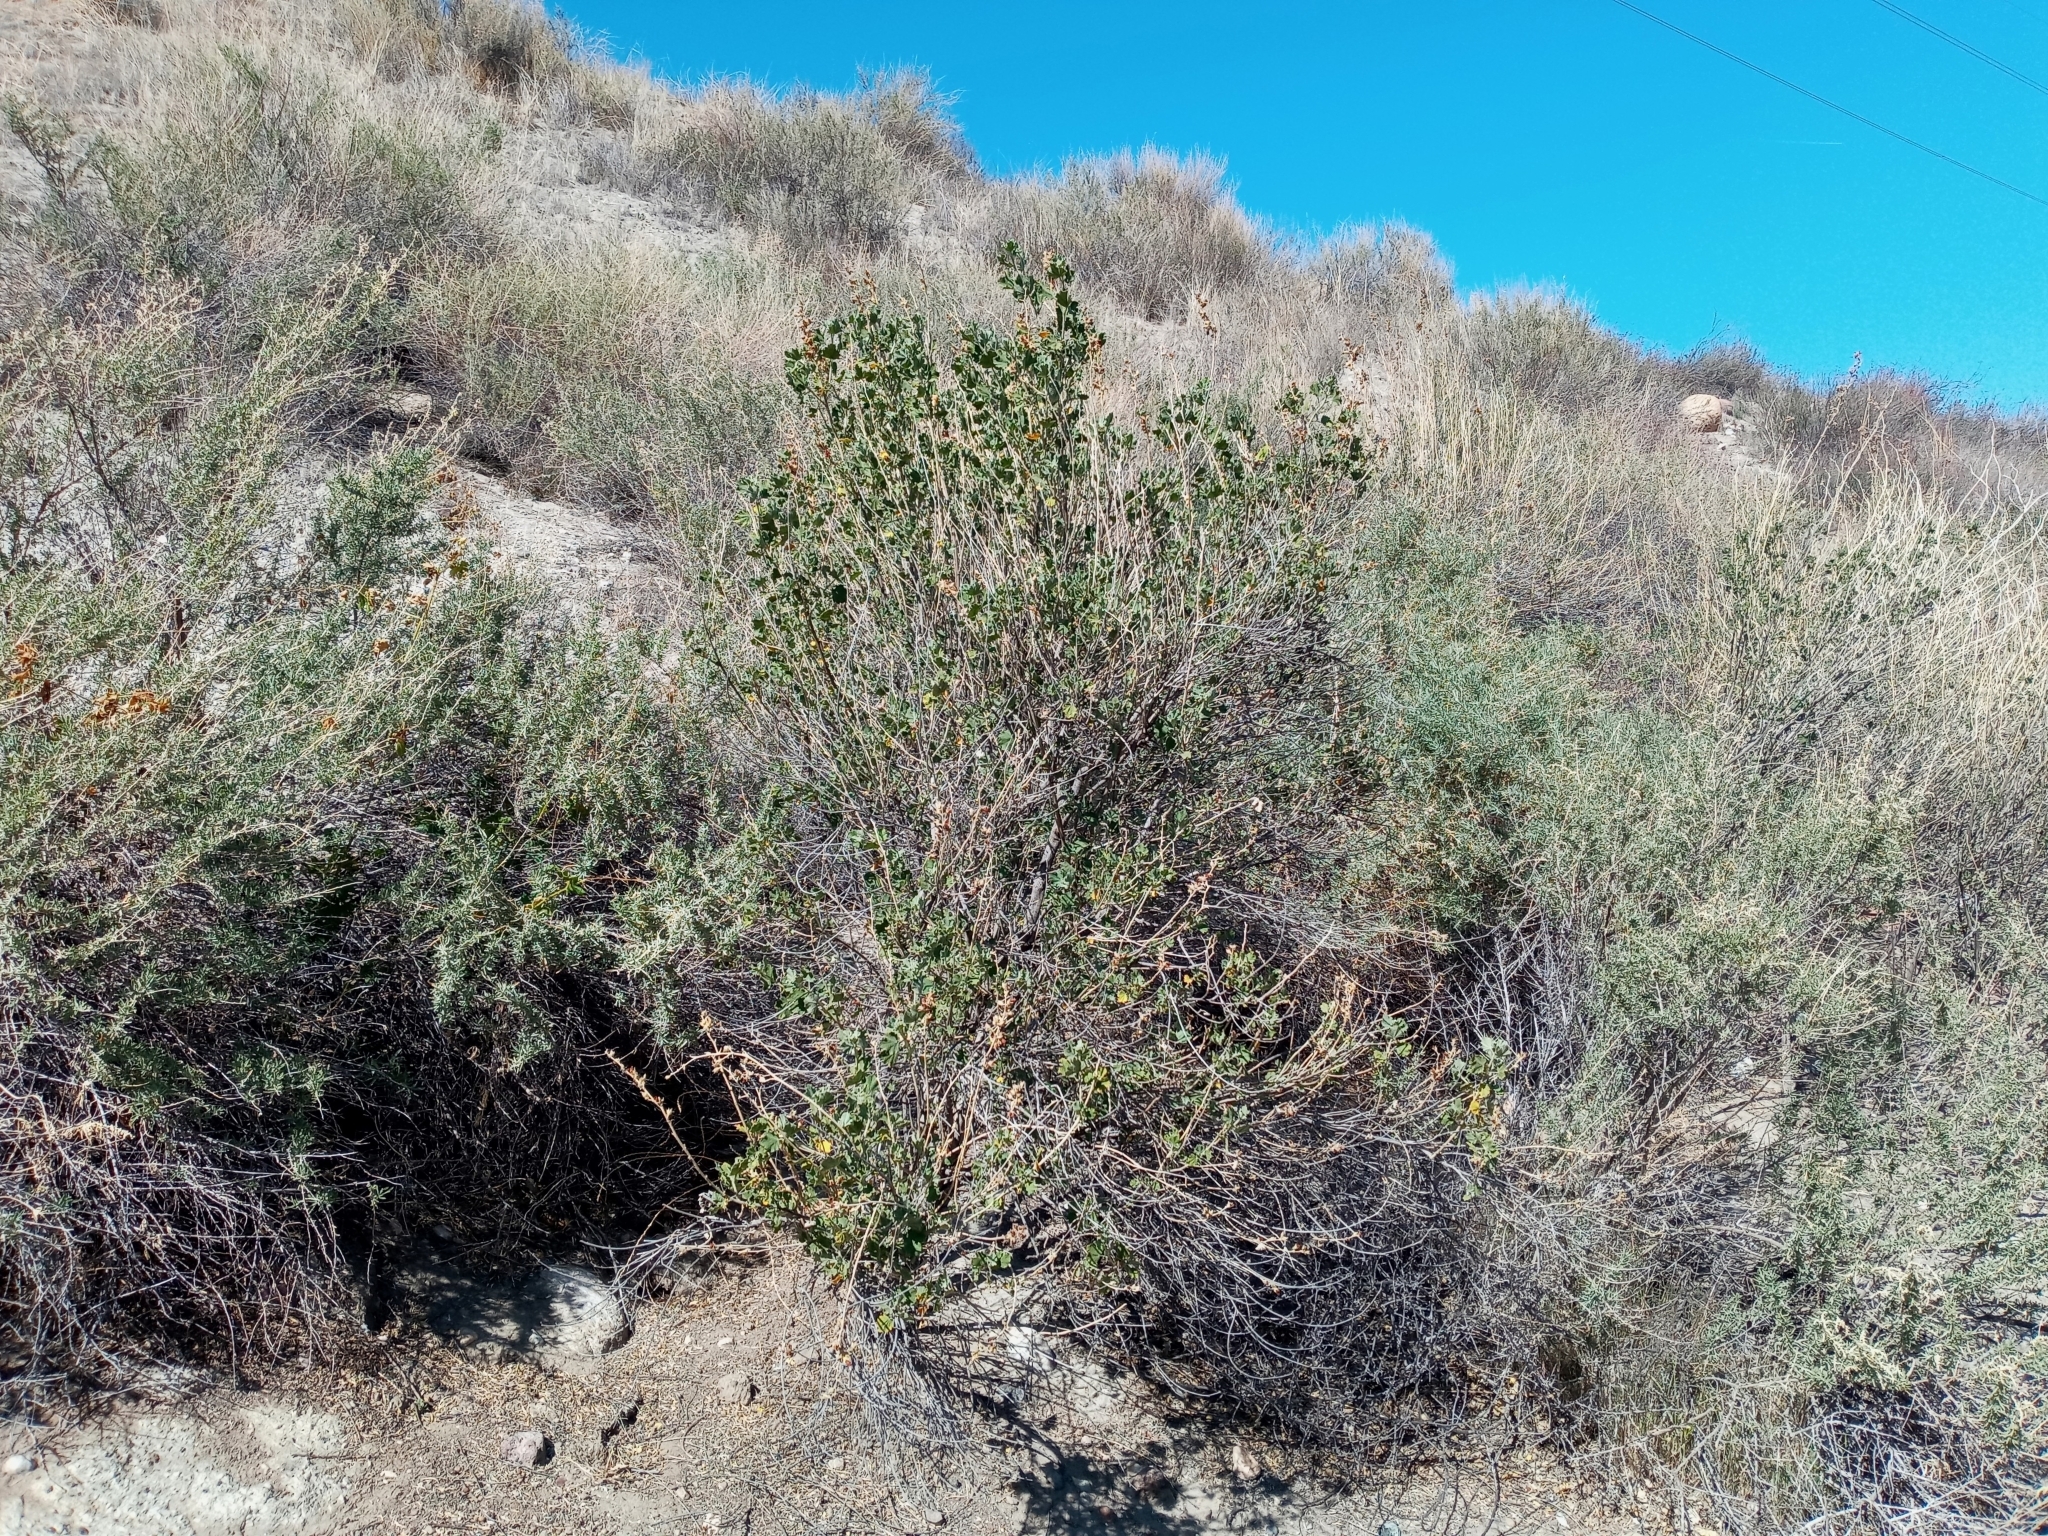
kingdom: Plantae
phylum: Tracheophyta
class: Magnoliopsida
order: Malvales
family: Malvaceae
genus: Malacothamnus
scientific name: Malacothamnus marrubioides
